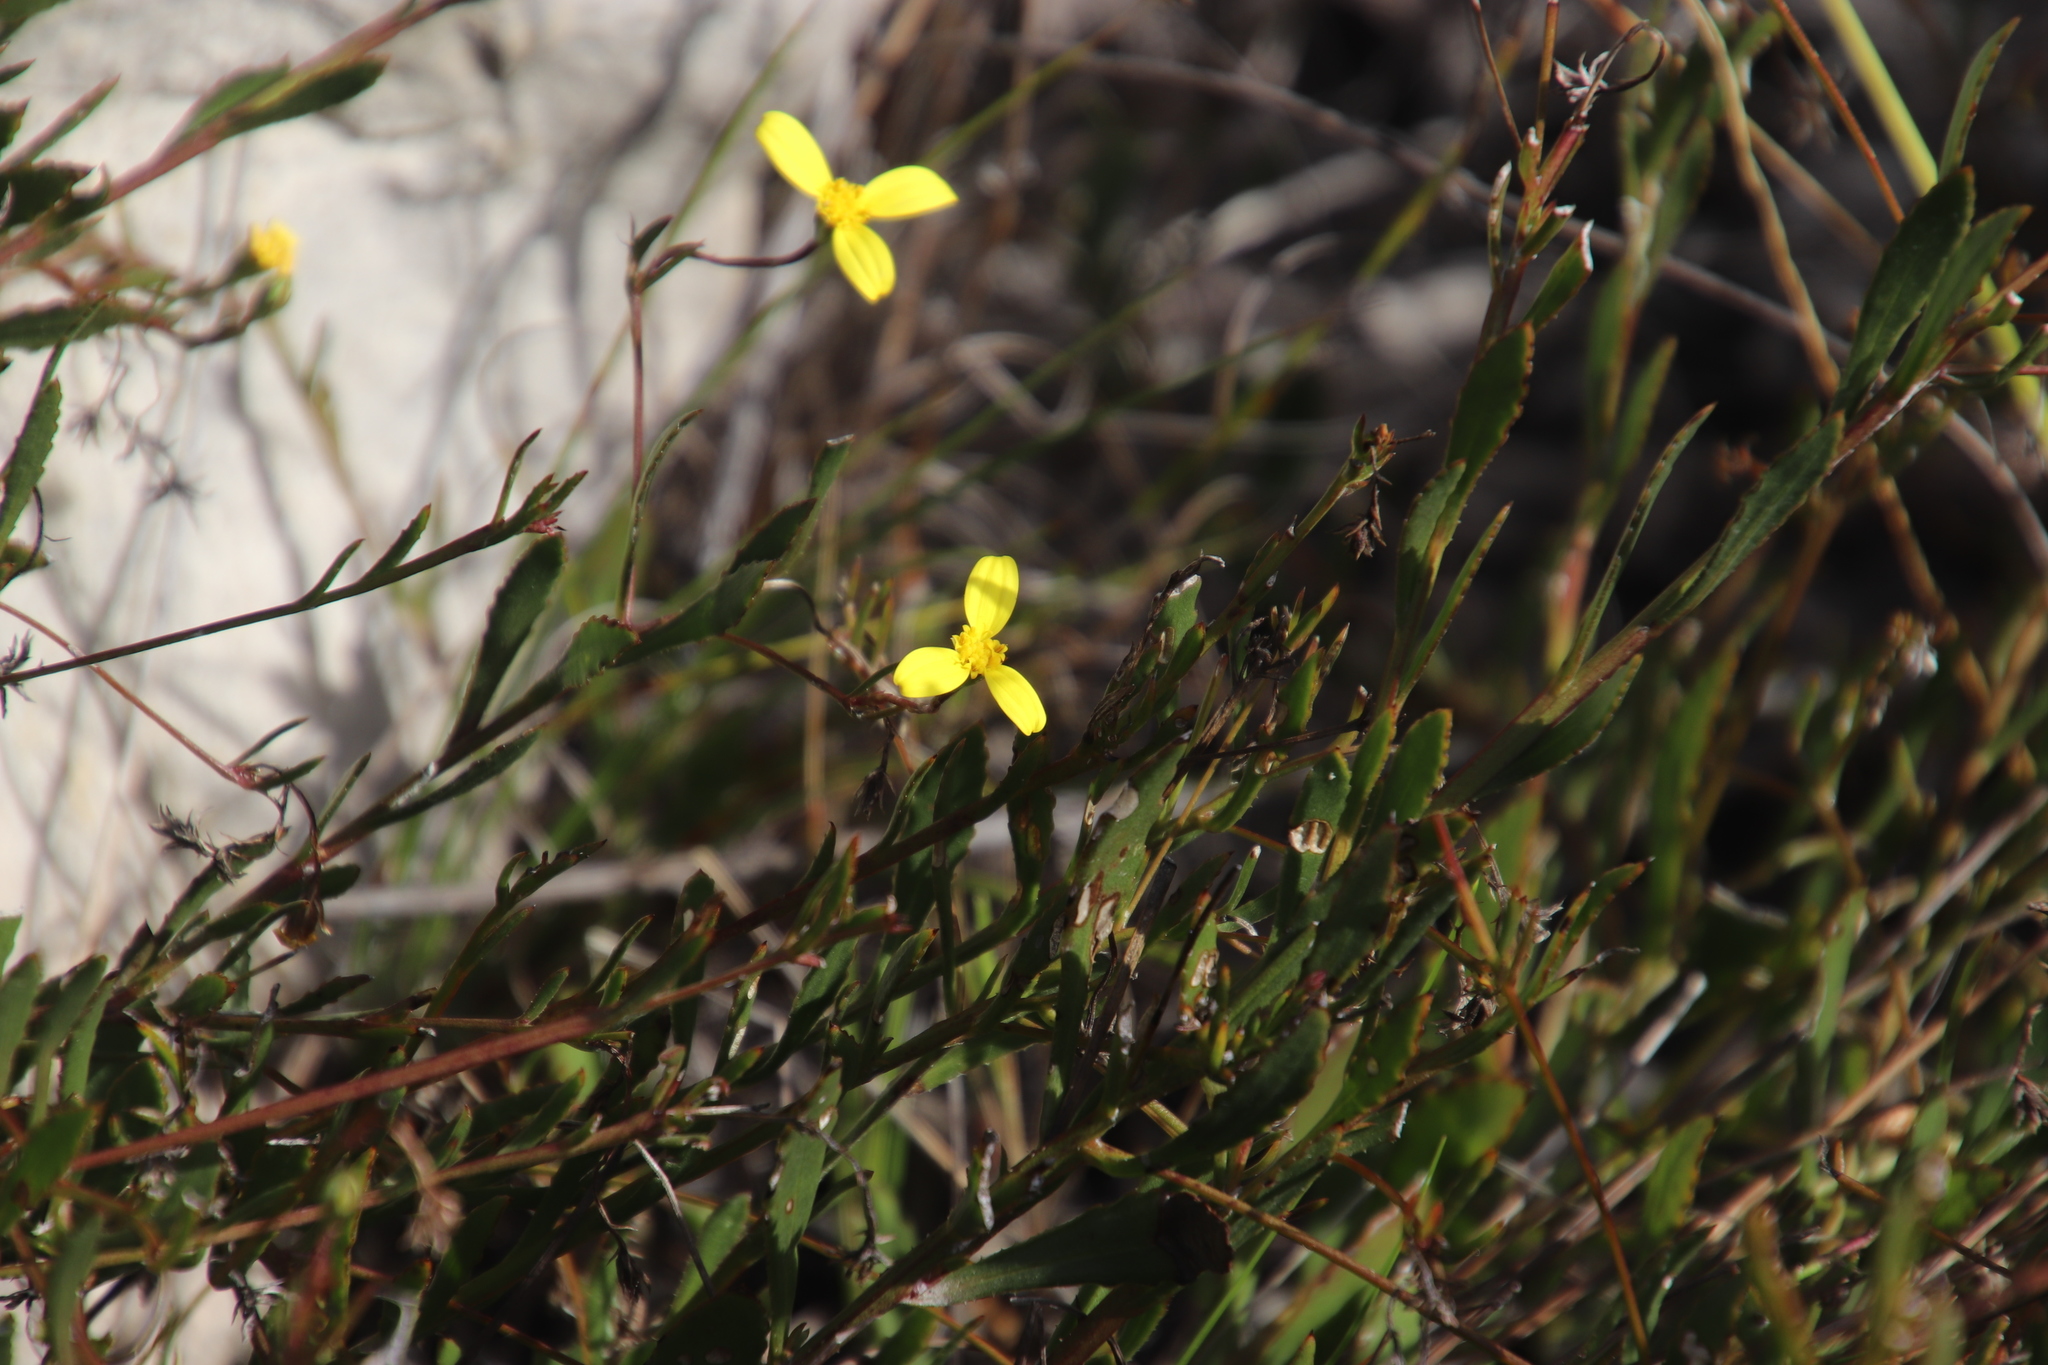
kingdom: Plantae
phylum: Tracheophyta
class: Magnoliopsida
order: Asterales
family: Asteraceae
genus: Osteospermum
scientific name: Osteospermum ciliatum
